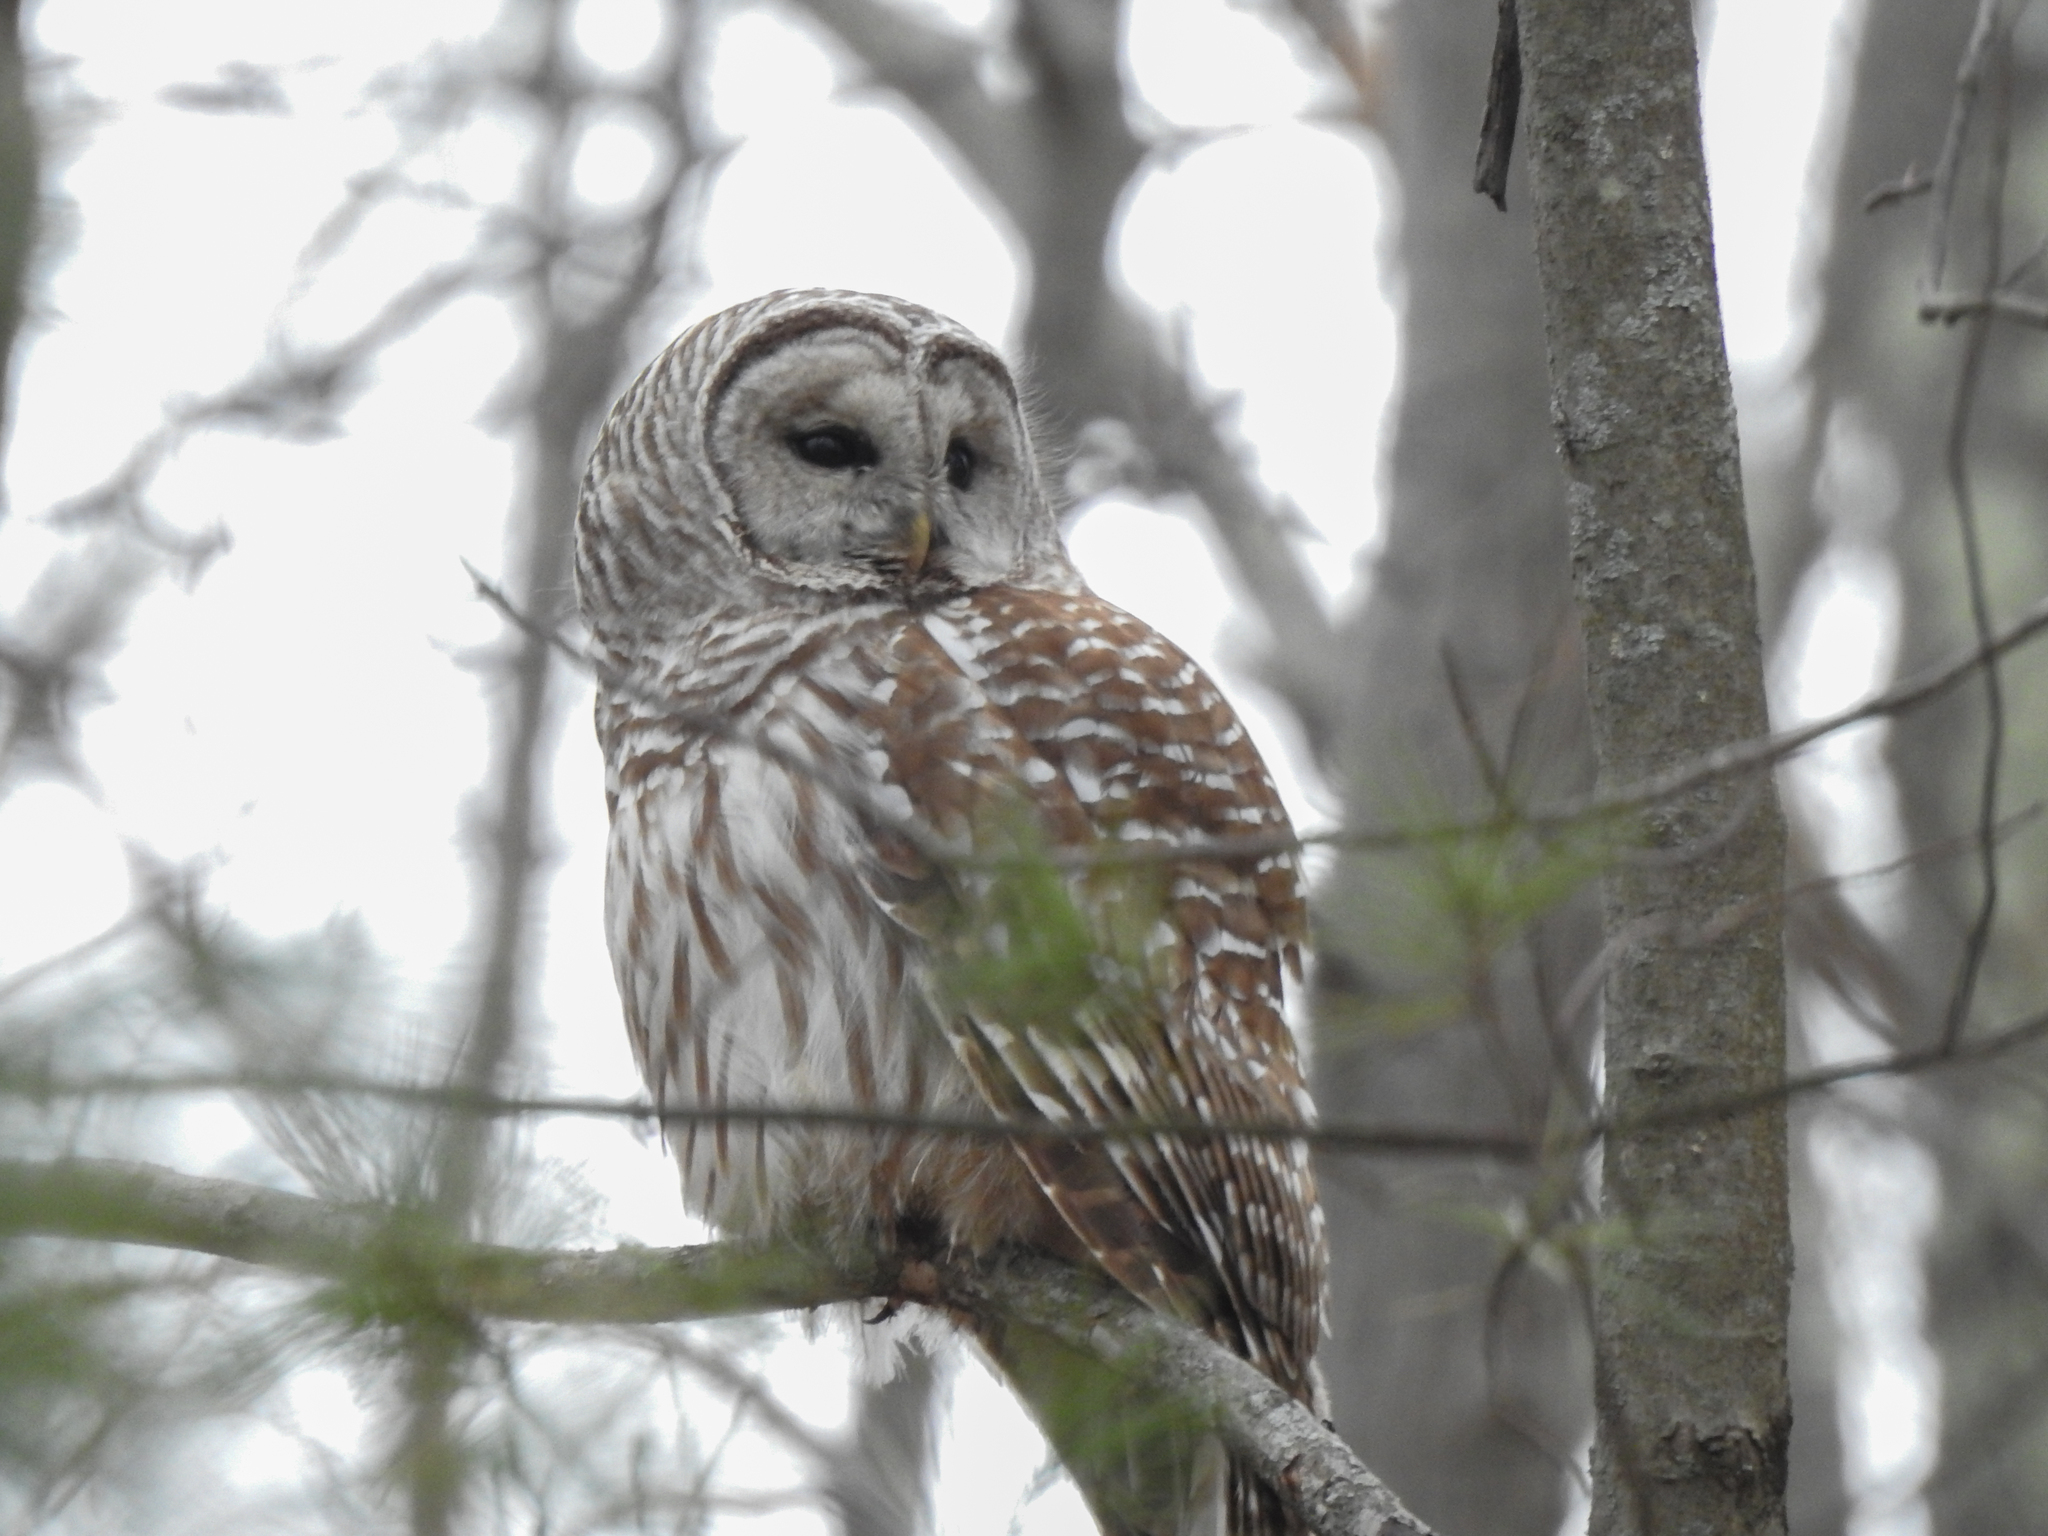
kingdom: Animalia
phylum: Chordata
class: Aves
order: Strigiformes
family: Strigidae
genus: Strix
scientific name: Strix varia
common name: Barred owl
